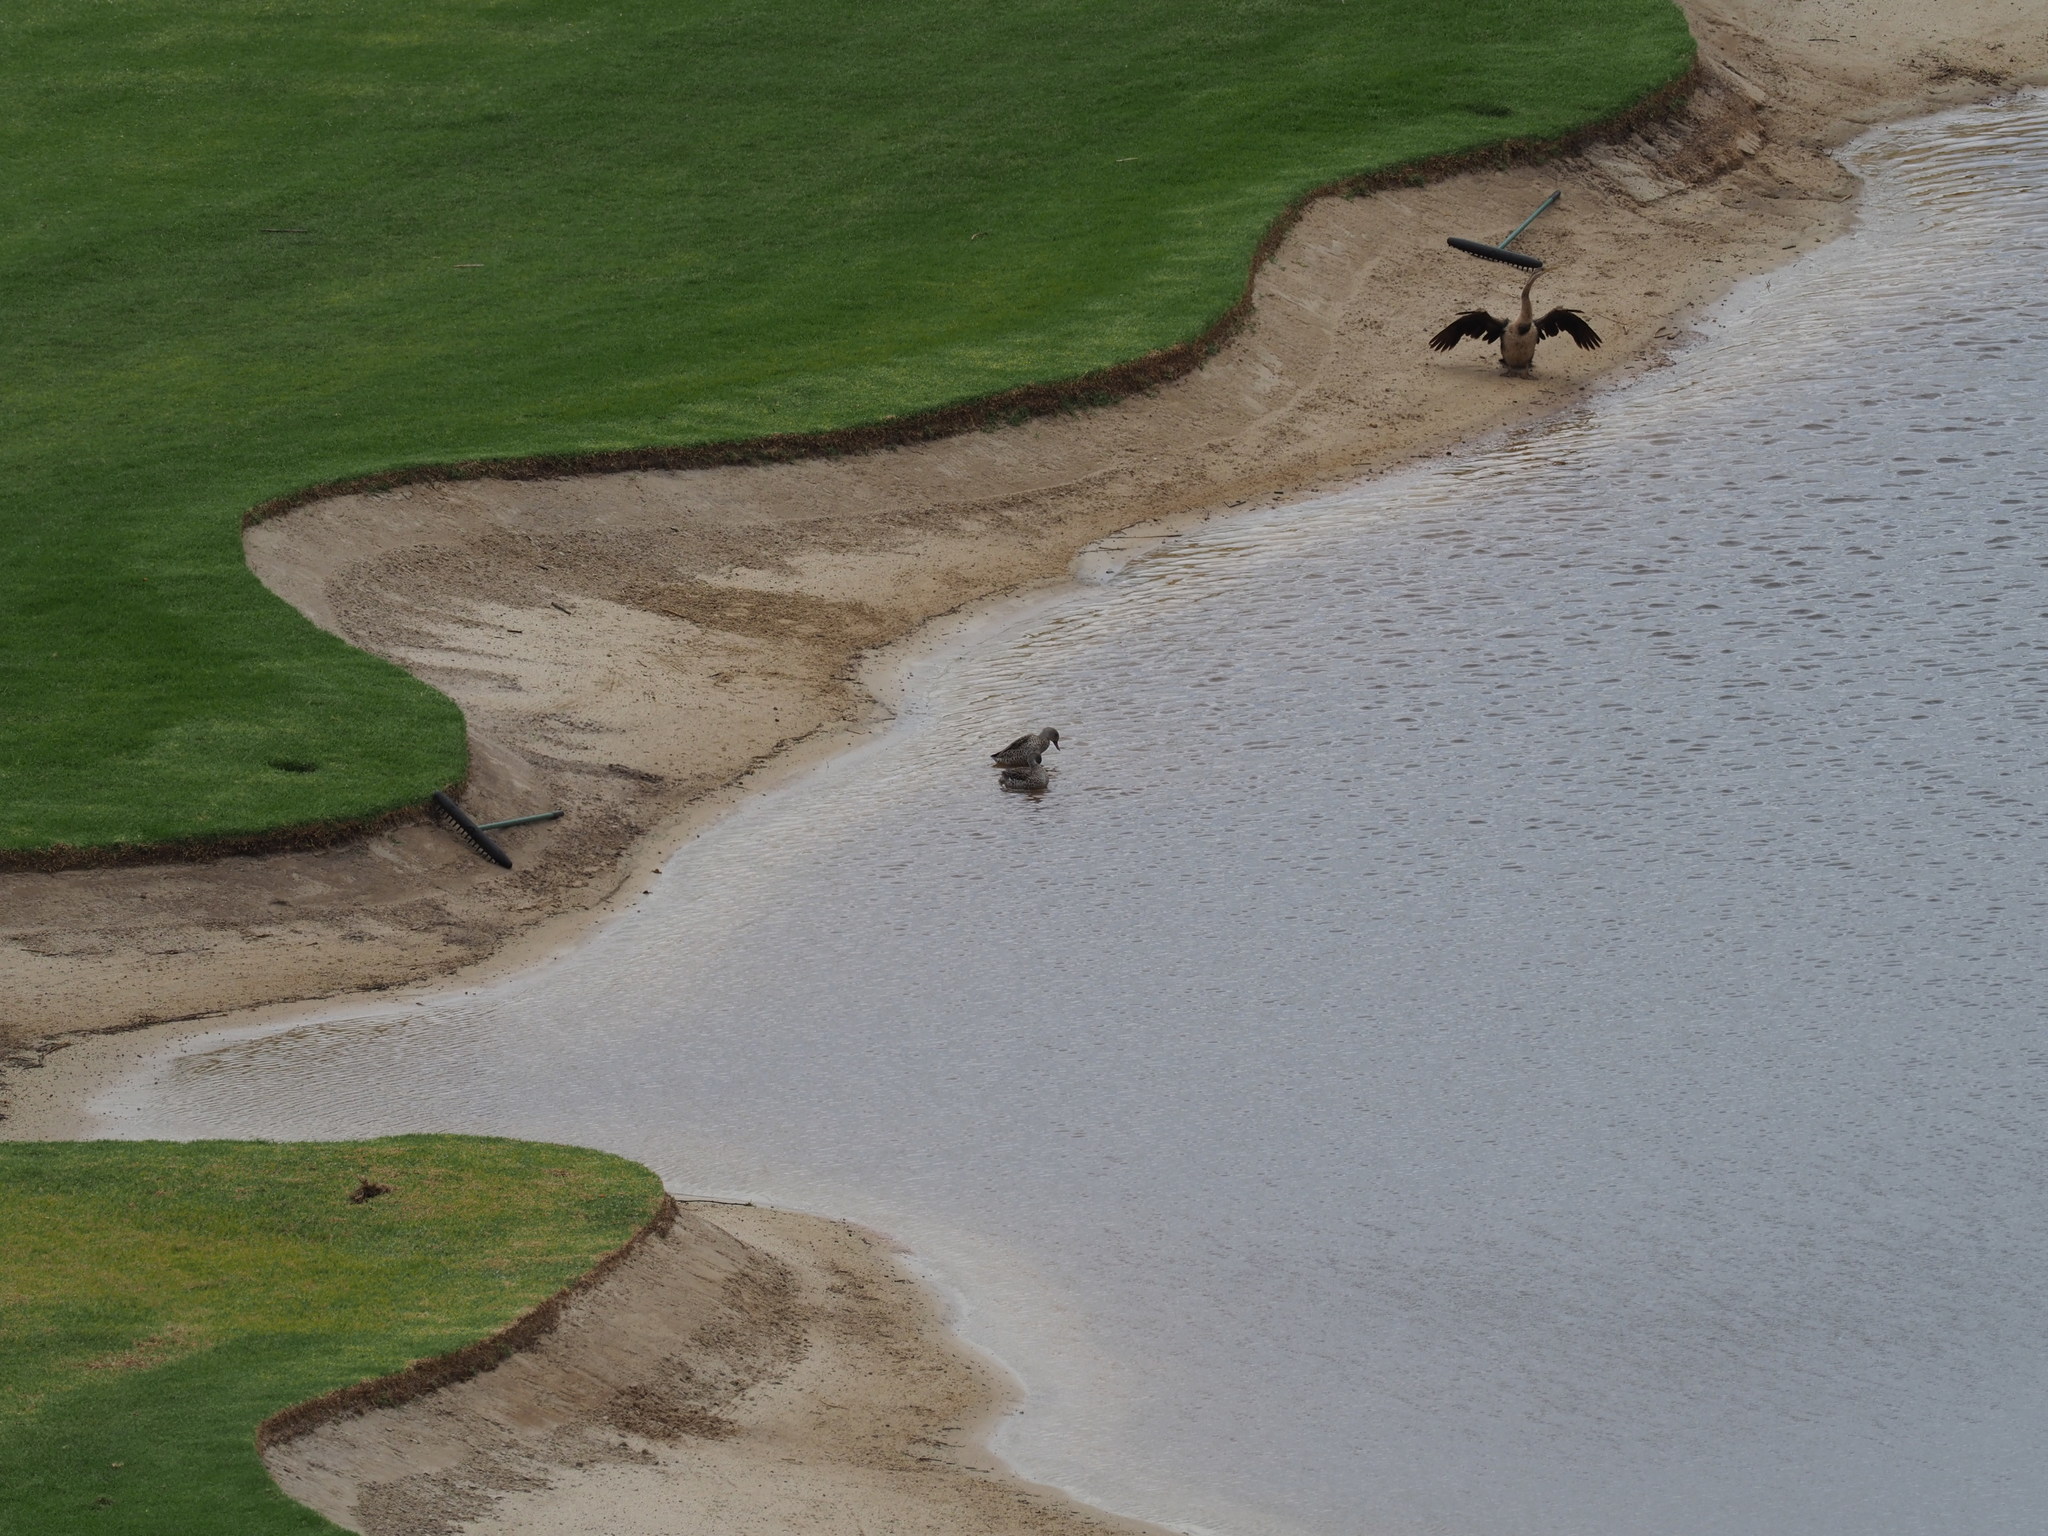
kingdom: Animalia
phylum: Chordata
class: Aves
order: Anseriformes
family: Anatidae
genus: Anas
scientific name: Anas capensis
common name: Cape teal
